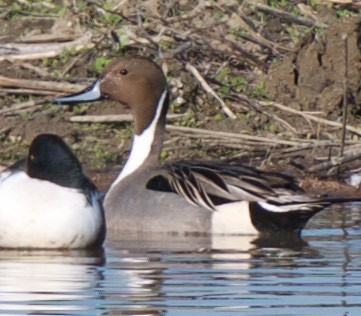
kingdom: Animalia
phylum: Chordata
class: Aves
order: Anseriformes
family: Anatidae
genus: Anas
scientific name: Anas acuta
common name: Northern pintail
